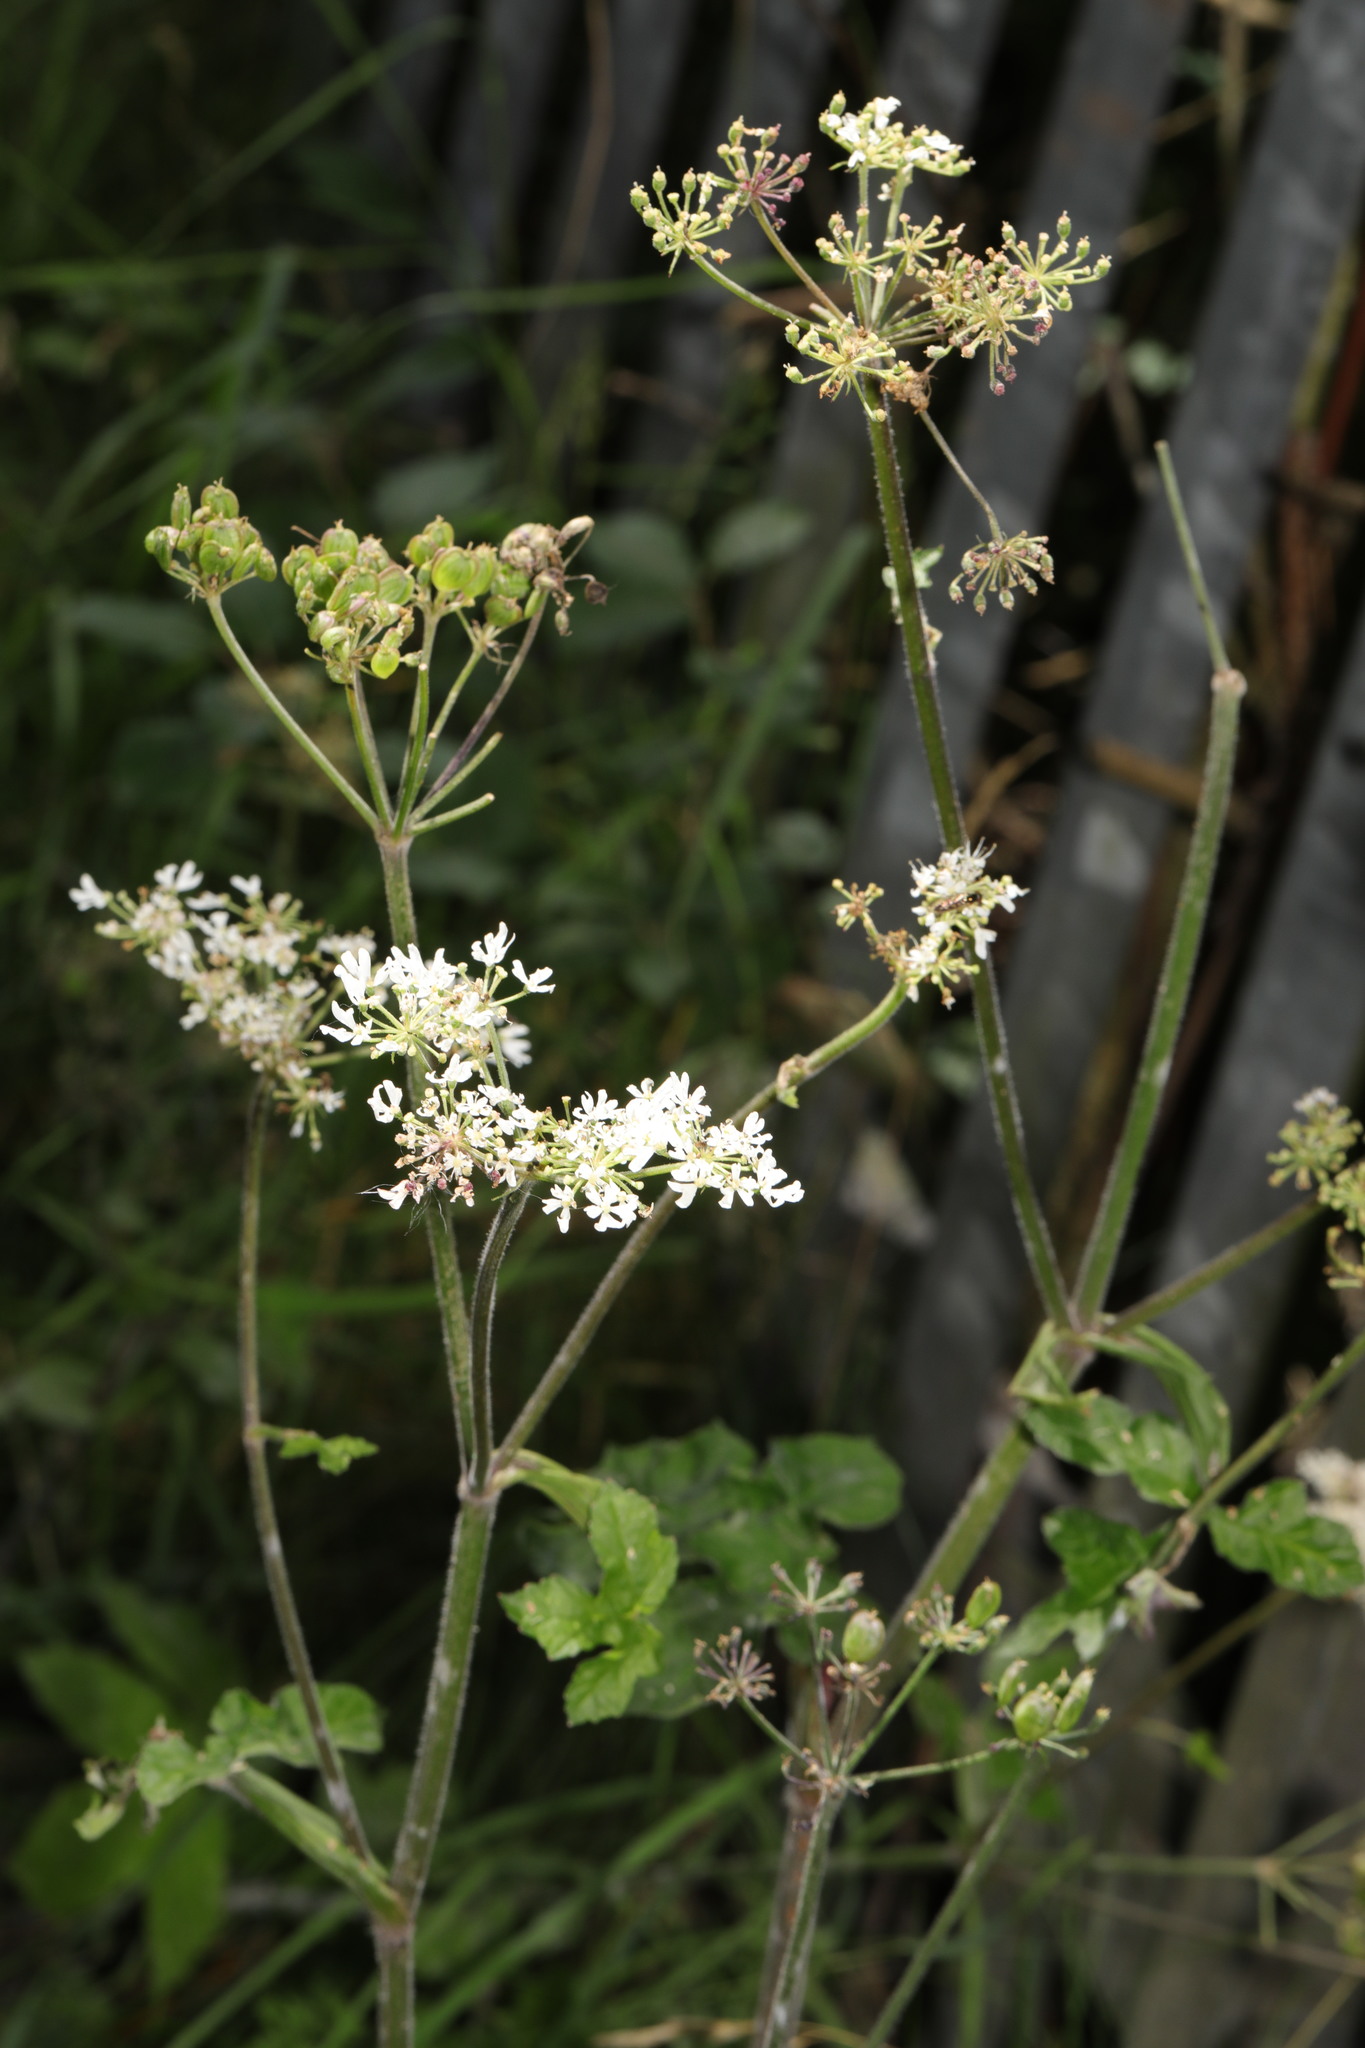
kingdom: Plantae
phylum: Tracheophyta
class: Magnoliopsida
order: Apiales
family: Apiaceae
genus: Heracleum
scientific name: Heracleum sphondylium
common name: Hogweed
